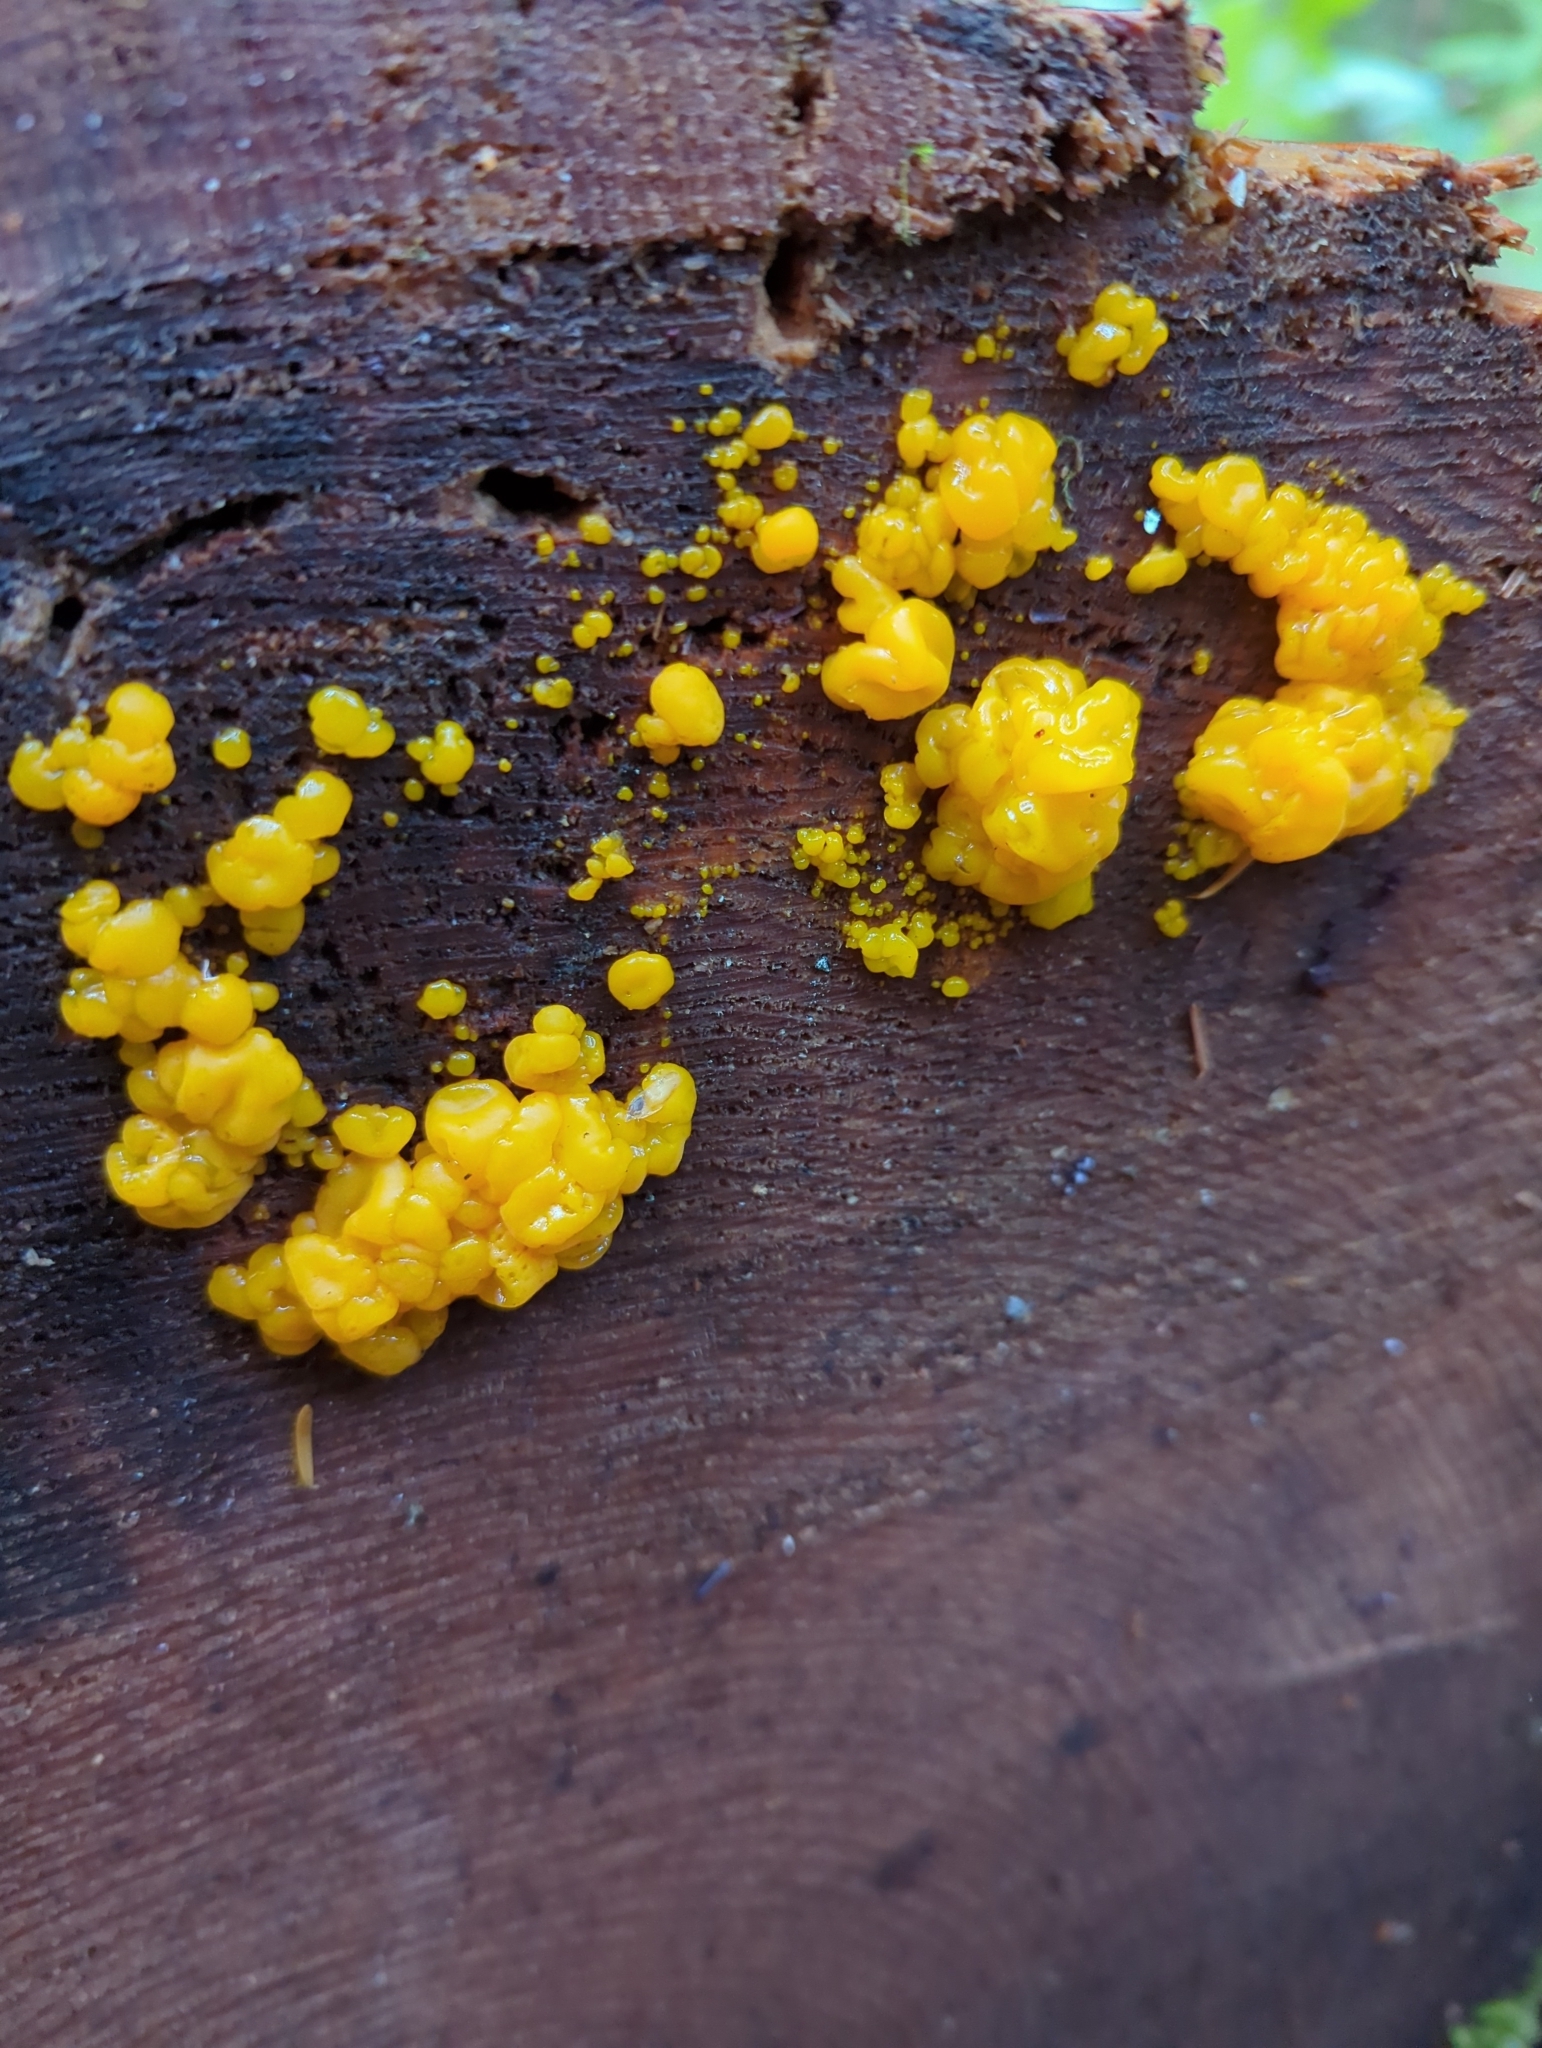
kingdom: Fungi
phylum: Basidiomycota
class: Dacrymycetes
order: Dacrymycetales
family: Dacrymycetaceae
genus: Dacrymyces
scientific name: Dacrymyces chrysospermus
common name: Orange jelly spot
